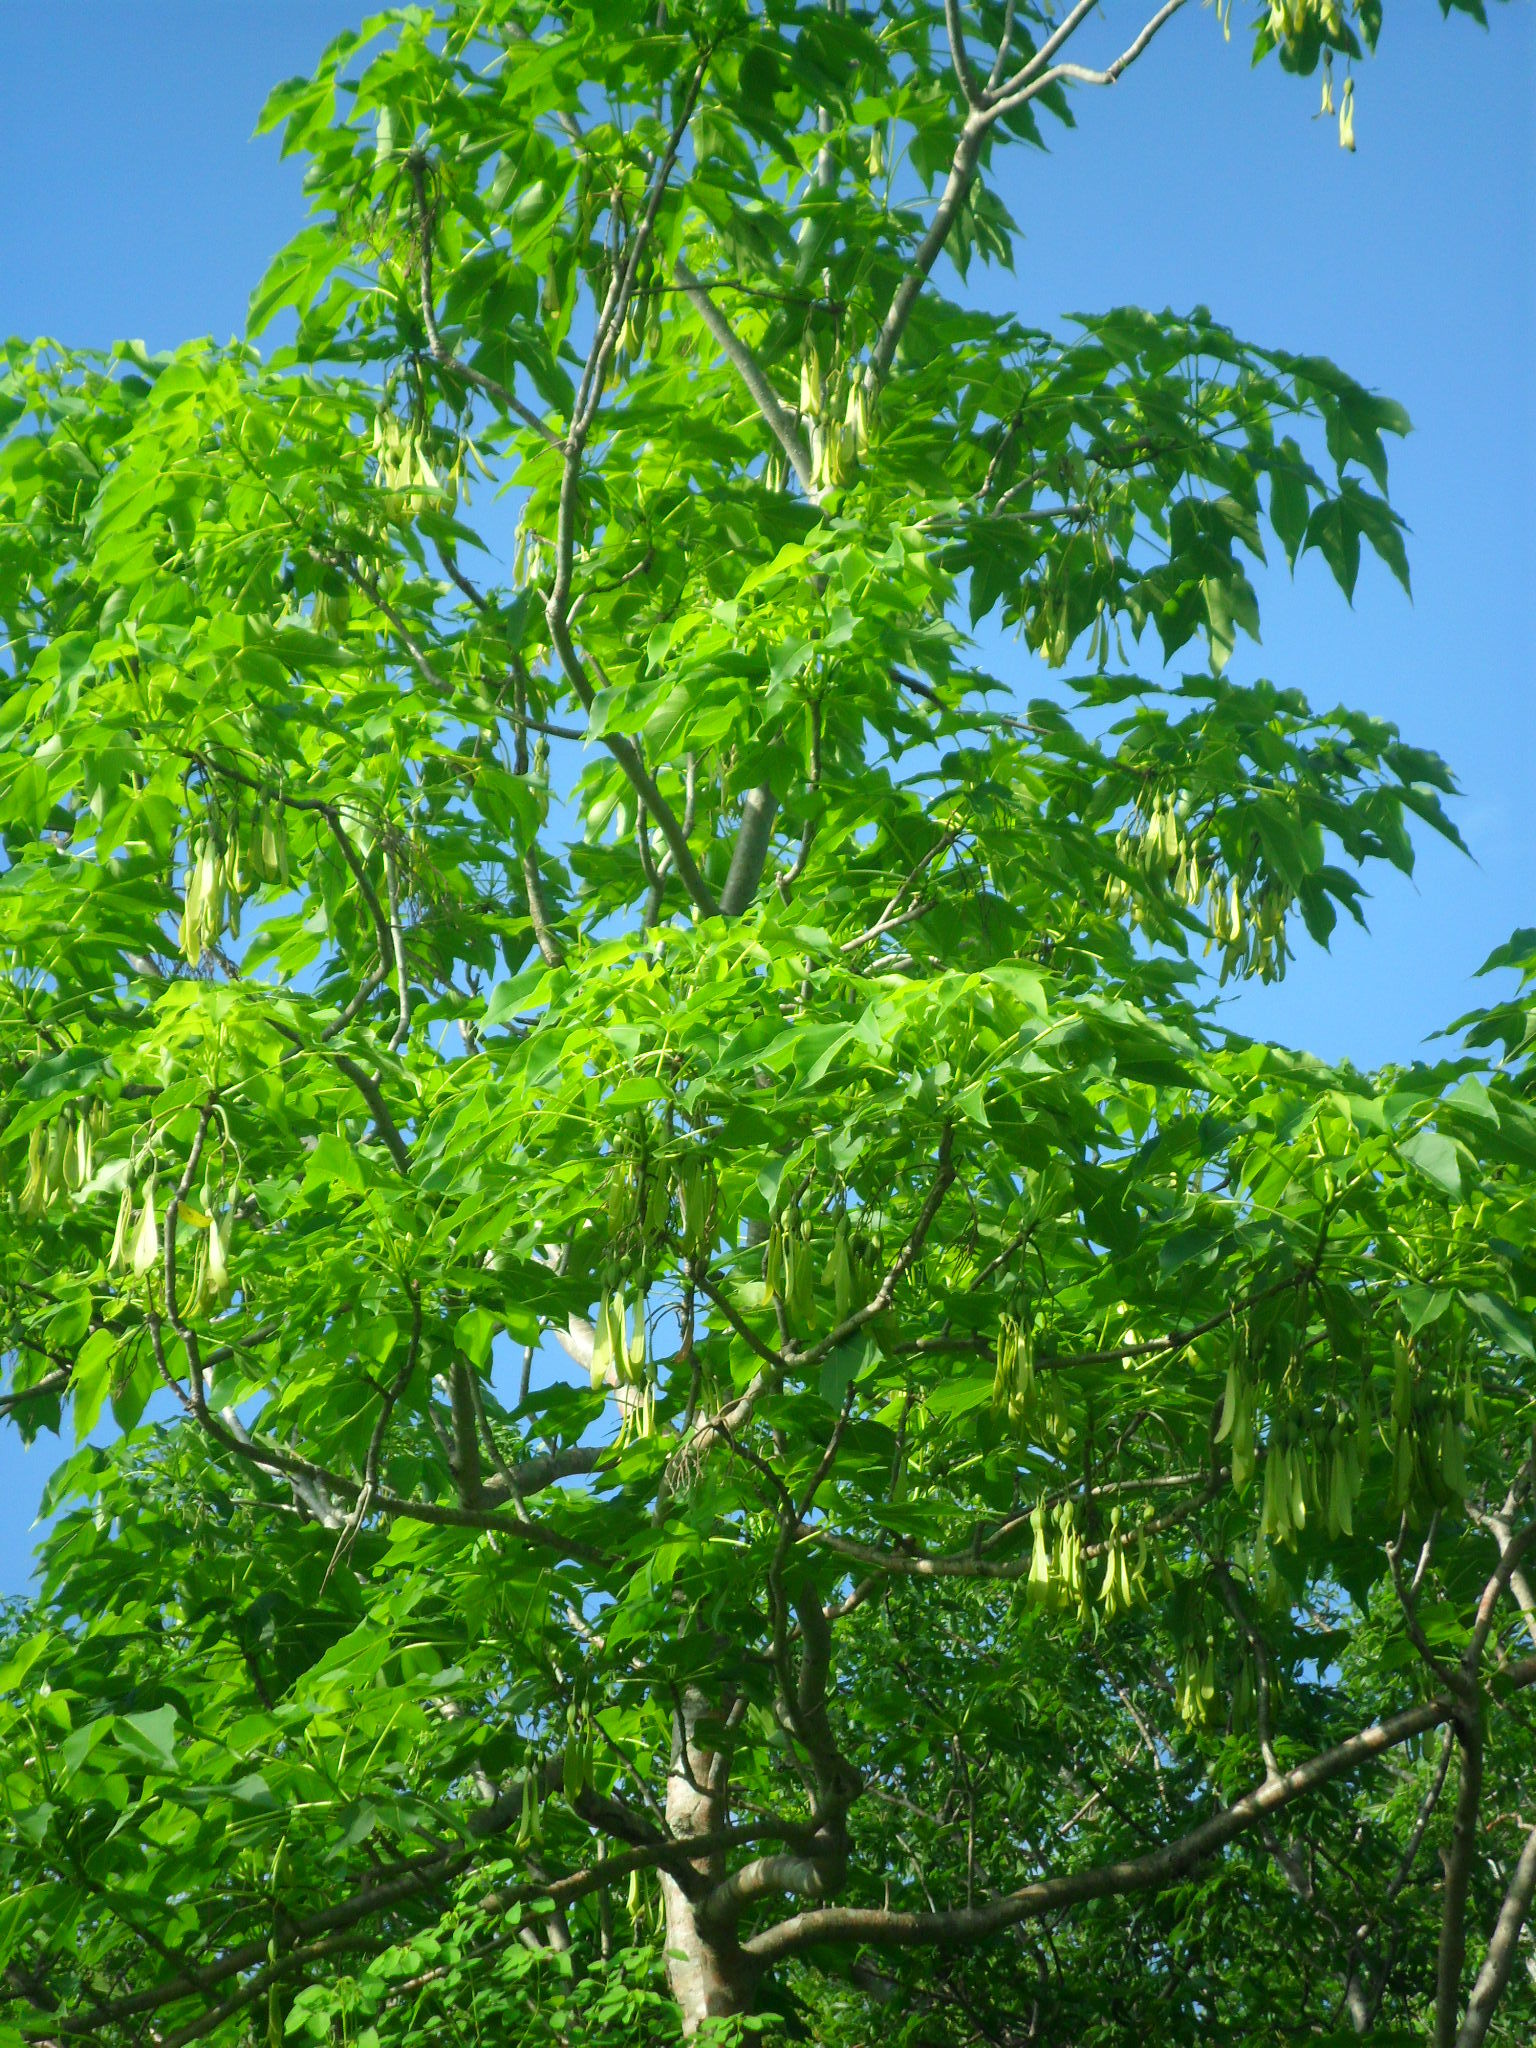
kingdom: Plantae
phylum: Tracheophyta
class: Magnoliopsida
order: Laurales
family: Hernandiaceae
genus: Gyrocarpus
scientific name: Gyrocarpus jatrophifolius
